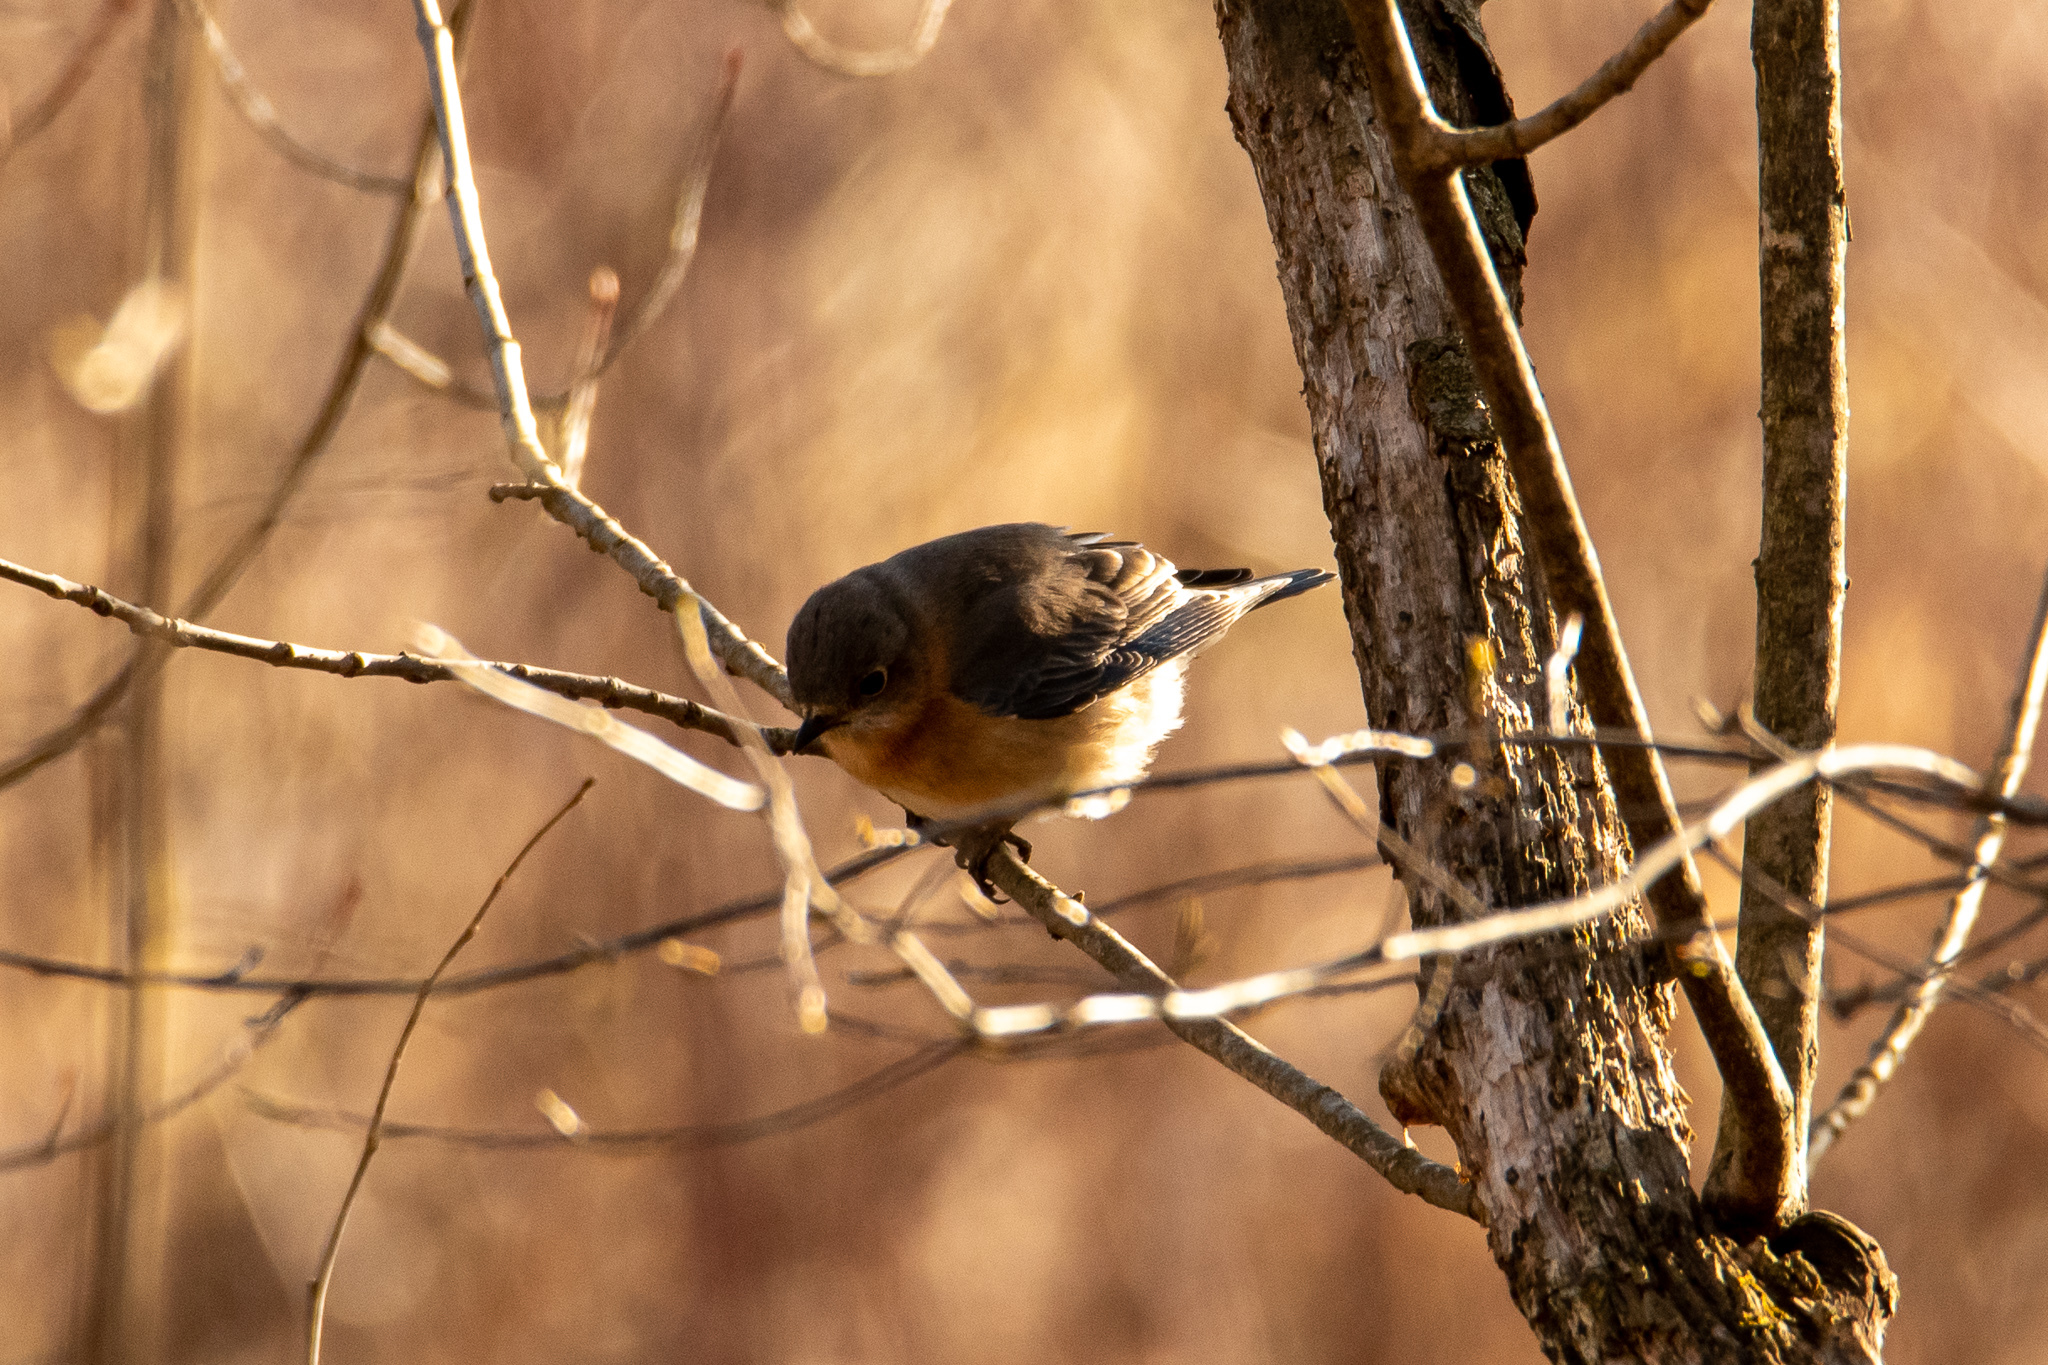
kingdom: Animalia
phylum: Chordata
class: Aves
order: Passeriformes
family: Turdidae
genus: Sialia
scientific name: Sialia sialis
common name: Eastern bluebird
